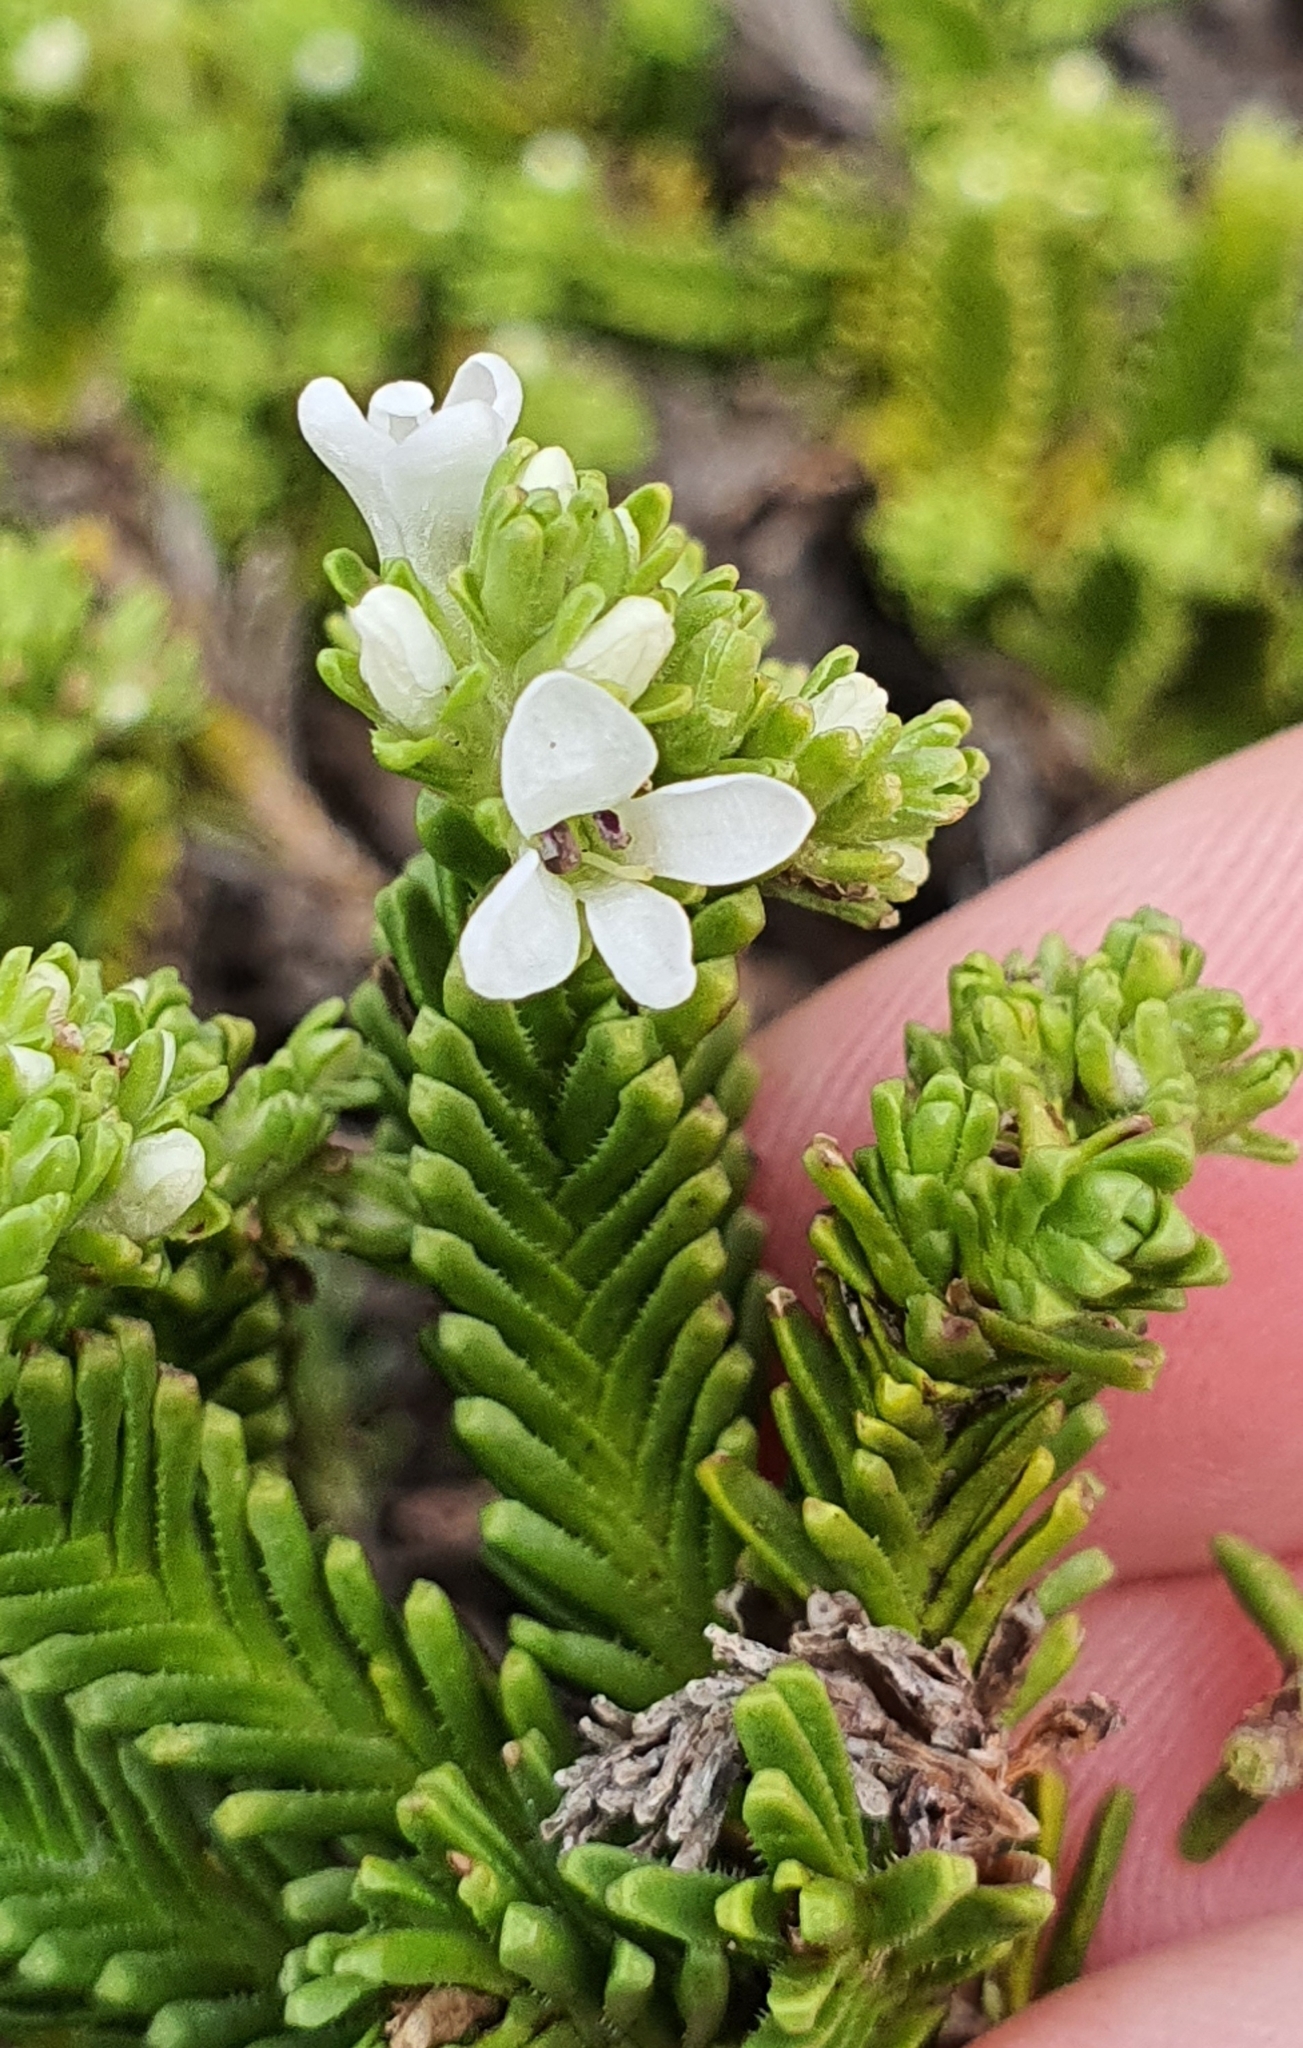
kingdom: Plantae
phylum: Tracheophyta
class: Magnoliopsida
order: Lamiales
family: Plantaginaceae
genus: Veronica
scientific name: Veronica hookeri
